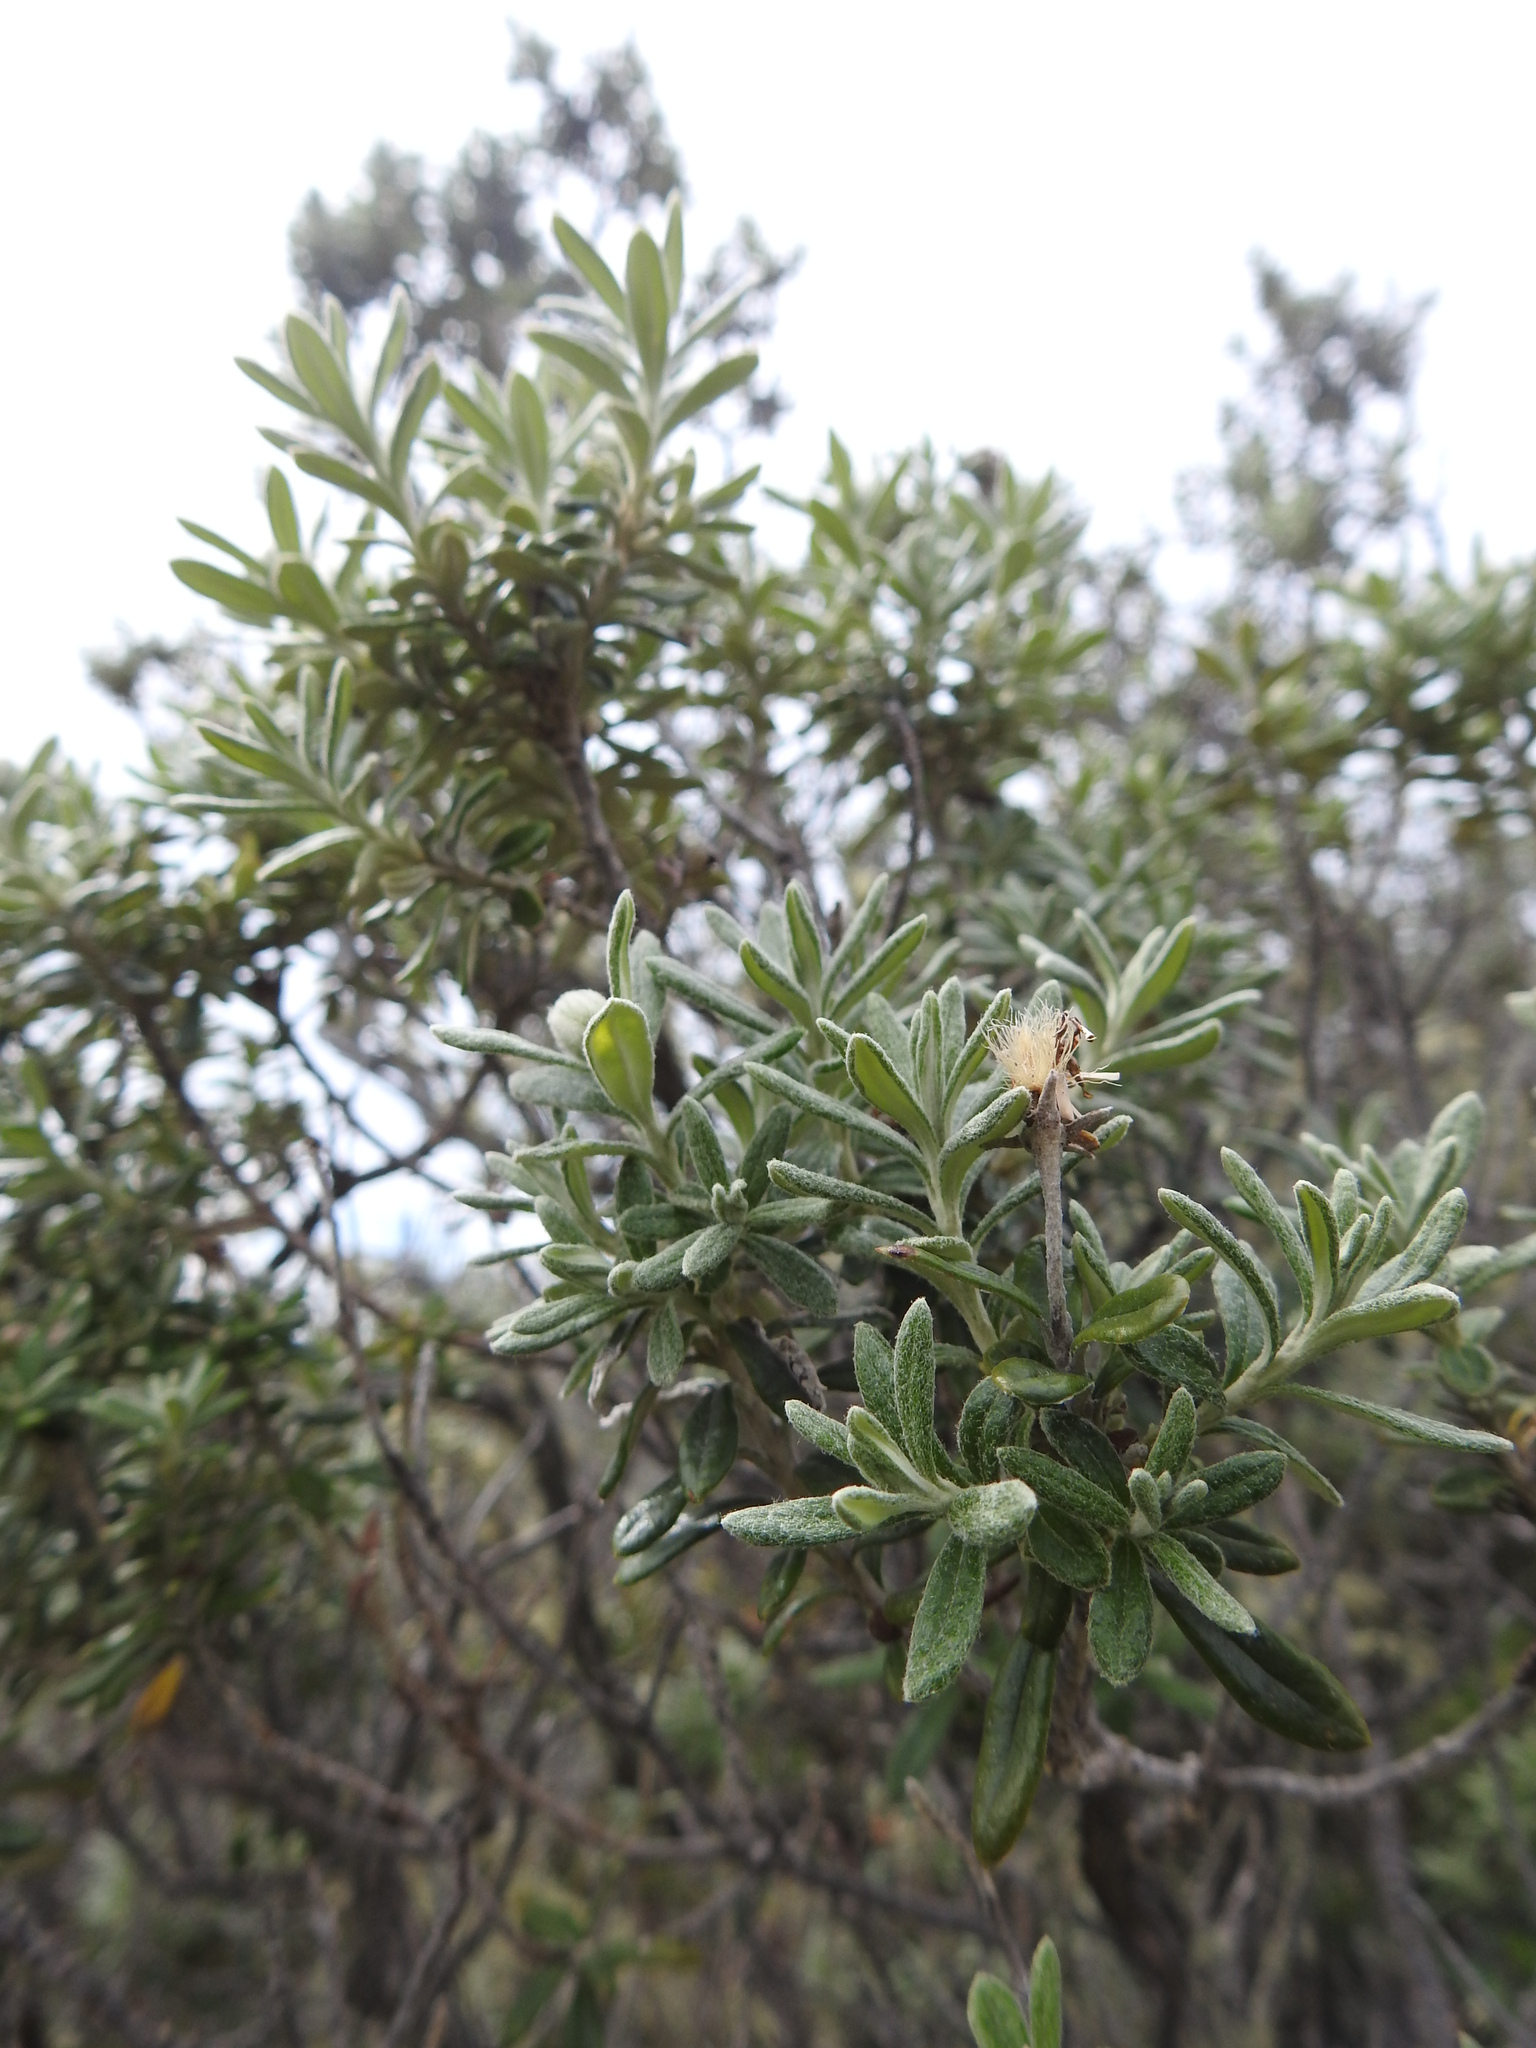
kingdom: Plantae
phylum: Tracheophyta
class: Magnoliopsida
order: Asterales
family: Asteraceae
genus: Chiliotrichum
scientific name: Chiliotrichum diffusum
